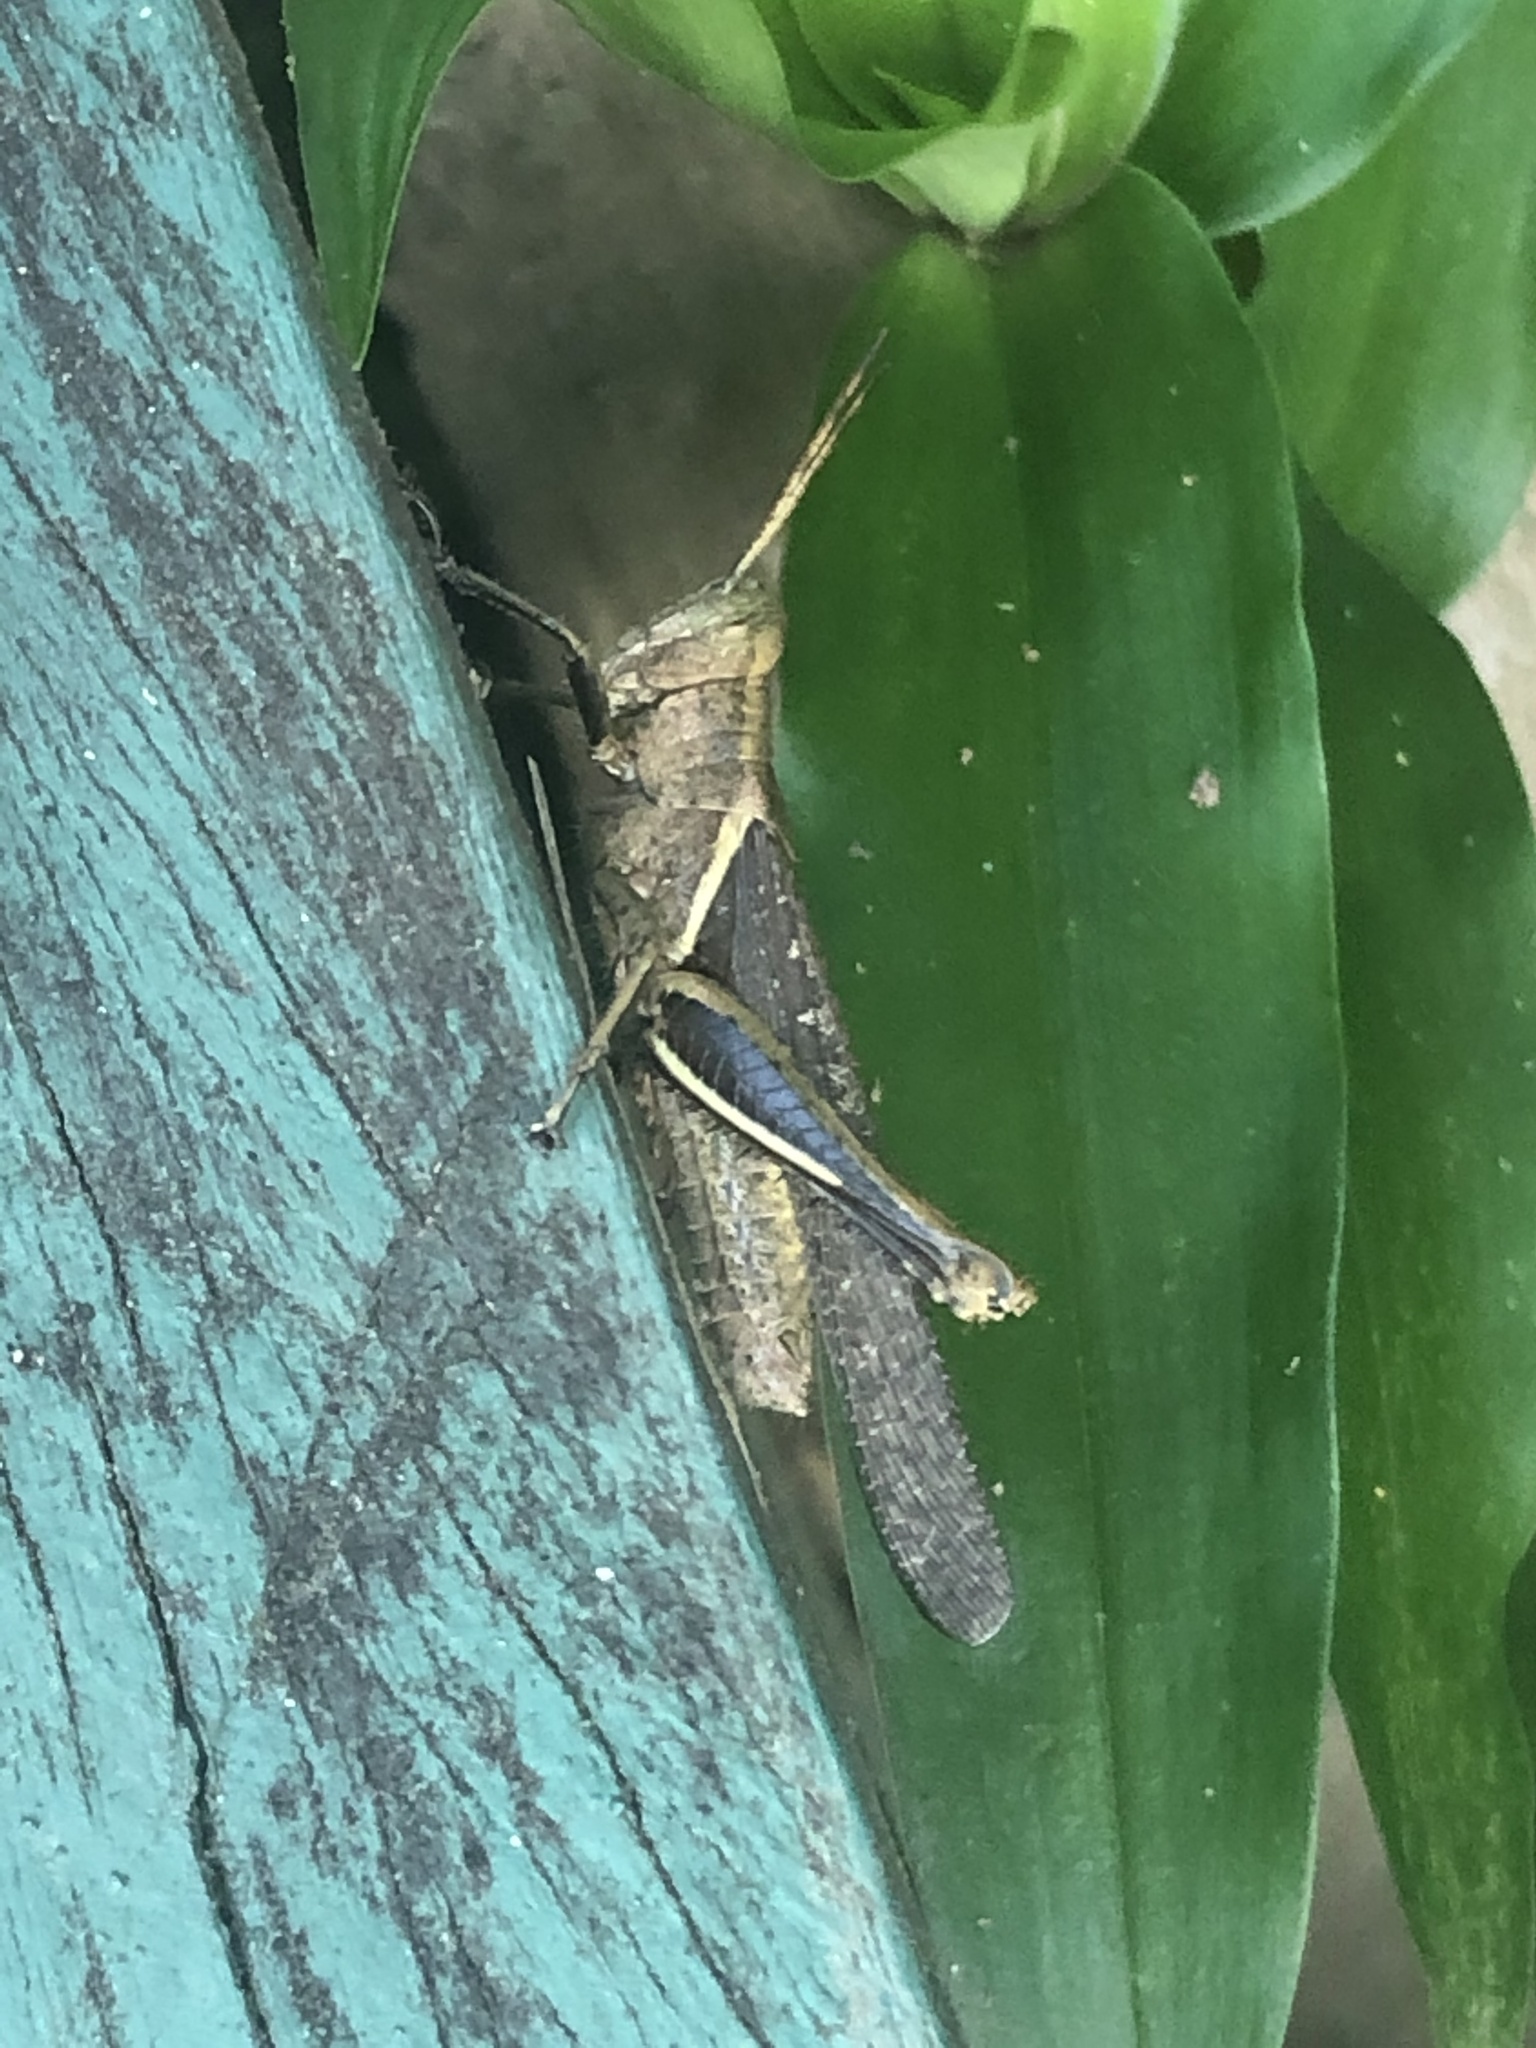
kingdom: Animalia
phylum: Arthropoda
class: Insecta
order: Orthoptera
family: Acrididae
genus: Abracris
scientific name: Abracris flavolineata
